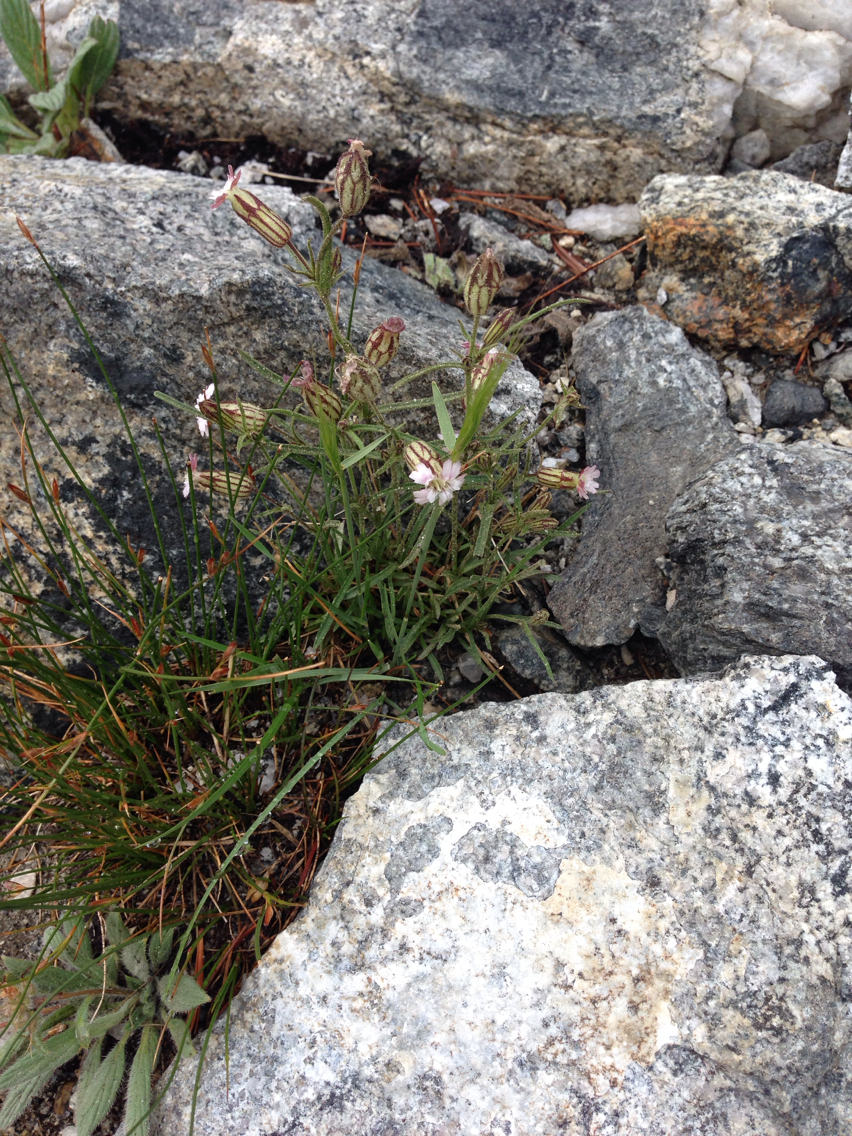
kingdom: Plantae
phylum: Tracheophyta
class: Magnoliopsida
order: Caryophyllales
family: Caryophyllaceae
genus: Silene
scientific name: Silene sargentii
